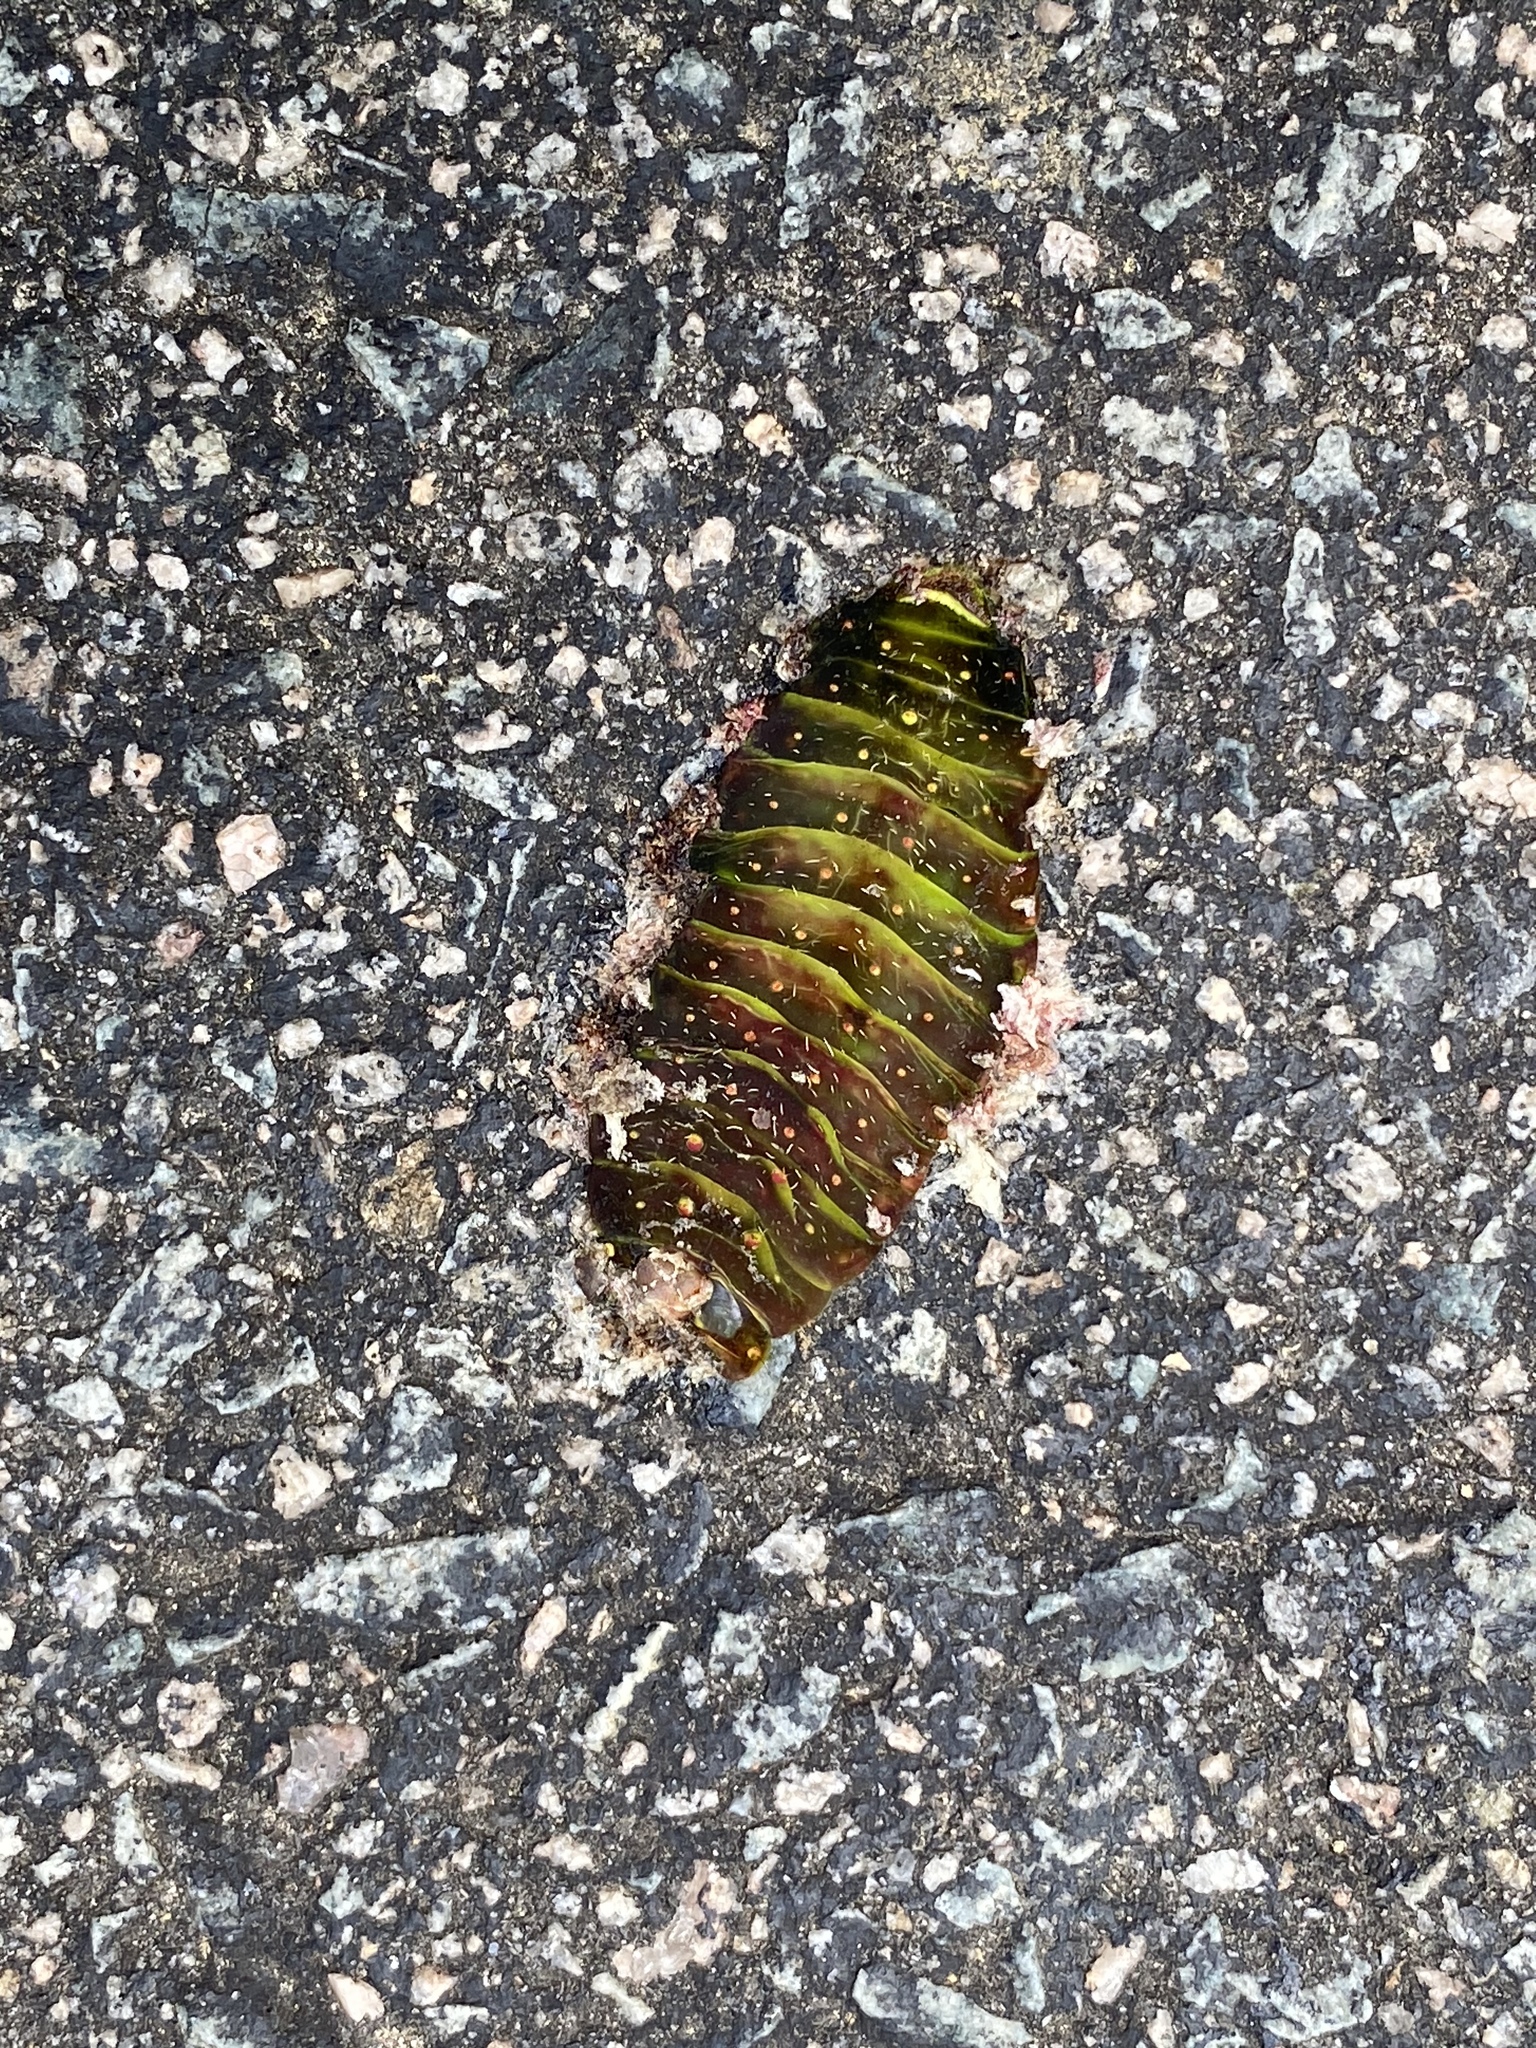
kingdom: Animalia
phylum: Arthropoda
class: Insecta
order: Lepidoptera
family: Saturniidae
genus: Actias
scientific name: Actias luna
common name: Luna moth
